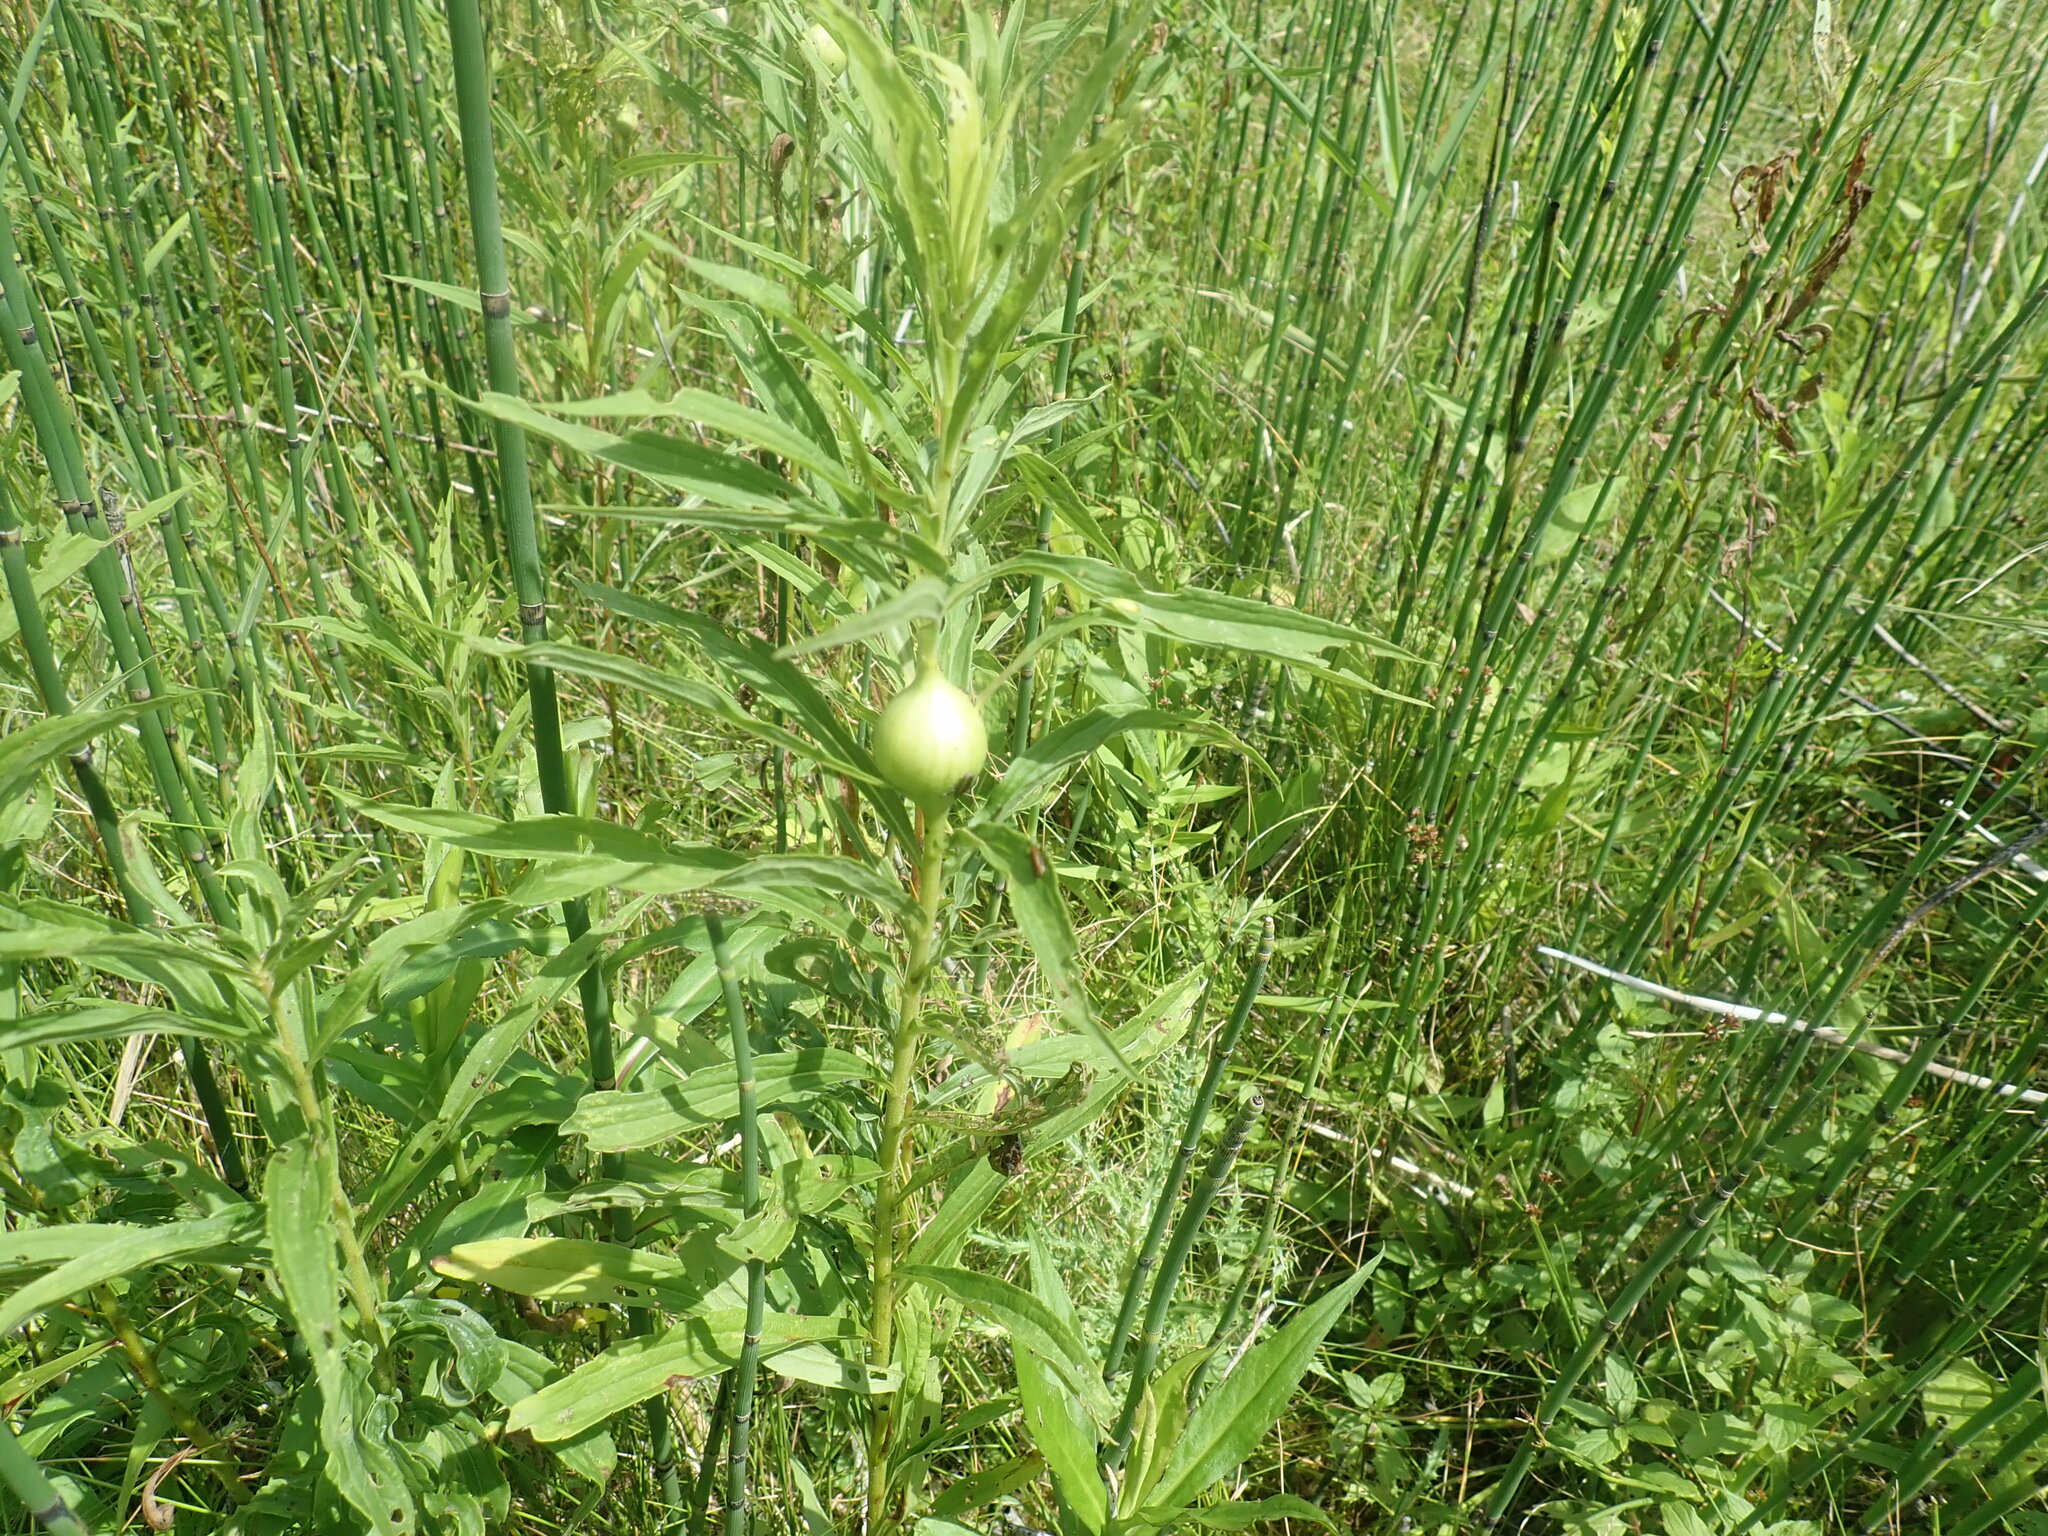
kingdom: Animalia
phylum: Arthropoda
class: Insecta
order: Diptera
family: Tephritidae
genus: Eurosta
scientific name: Eurosta solidaginis
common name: Goldenrod gall fly
